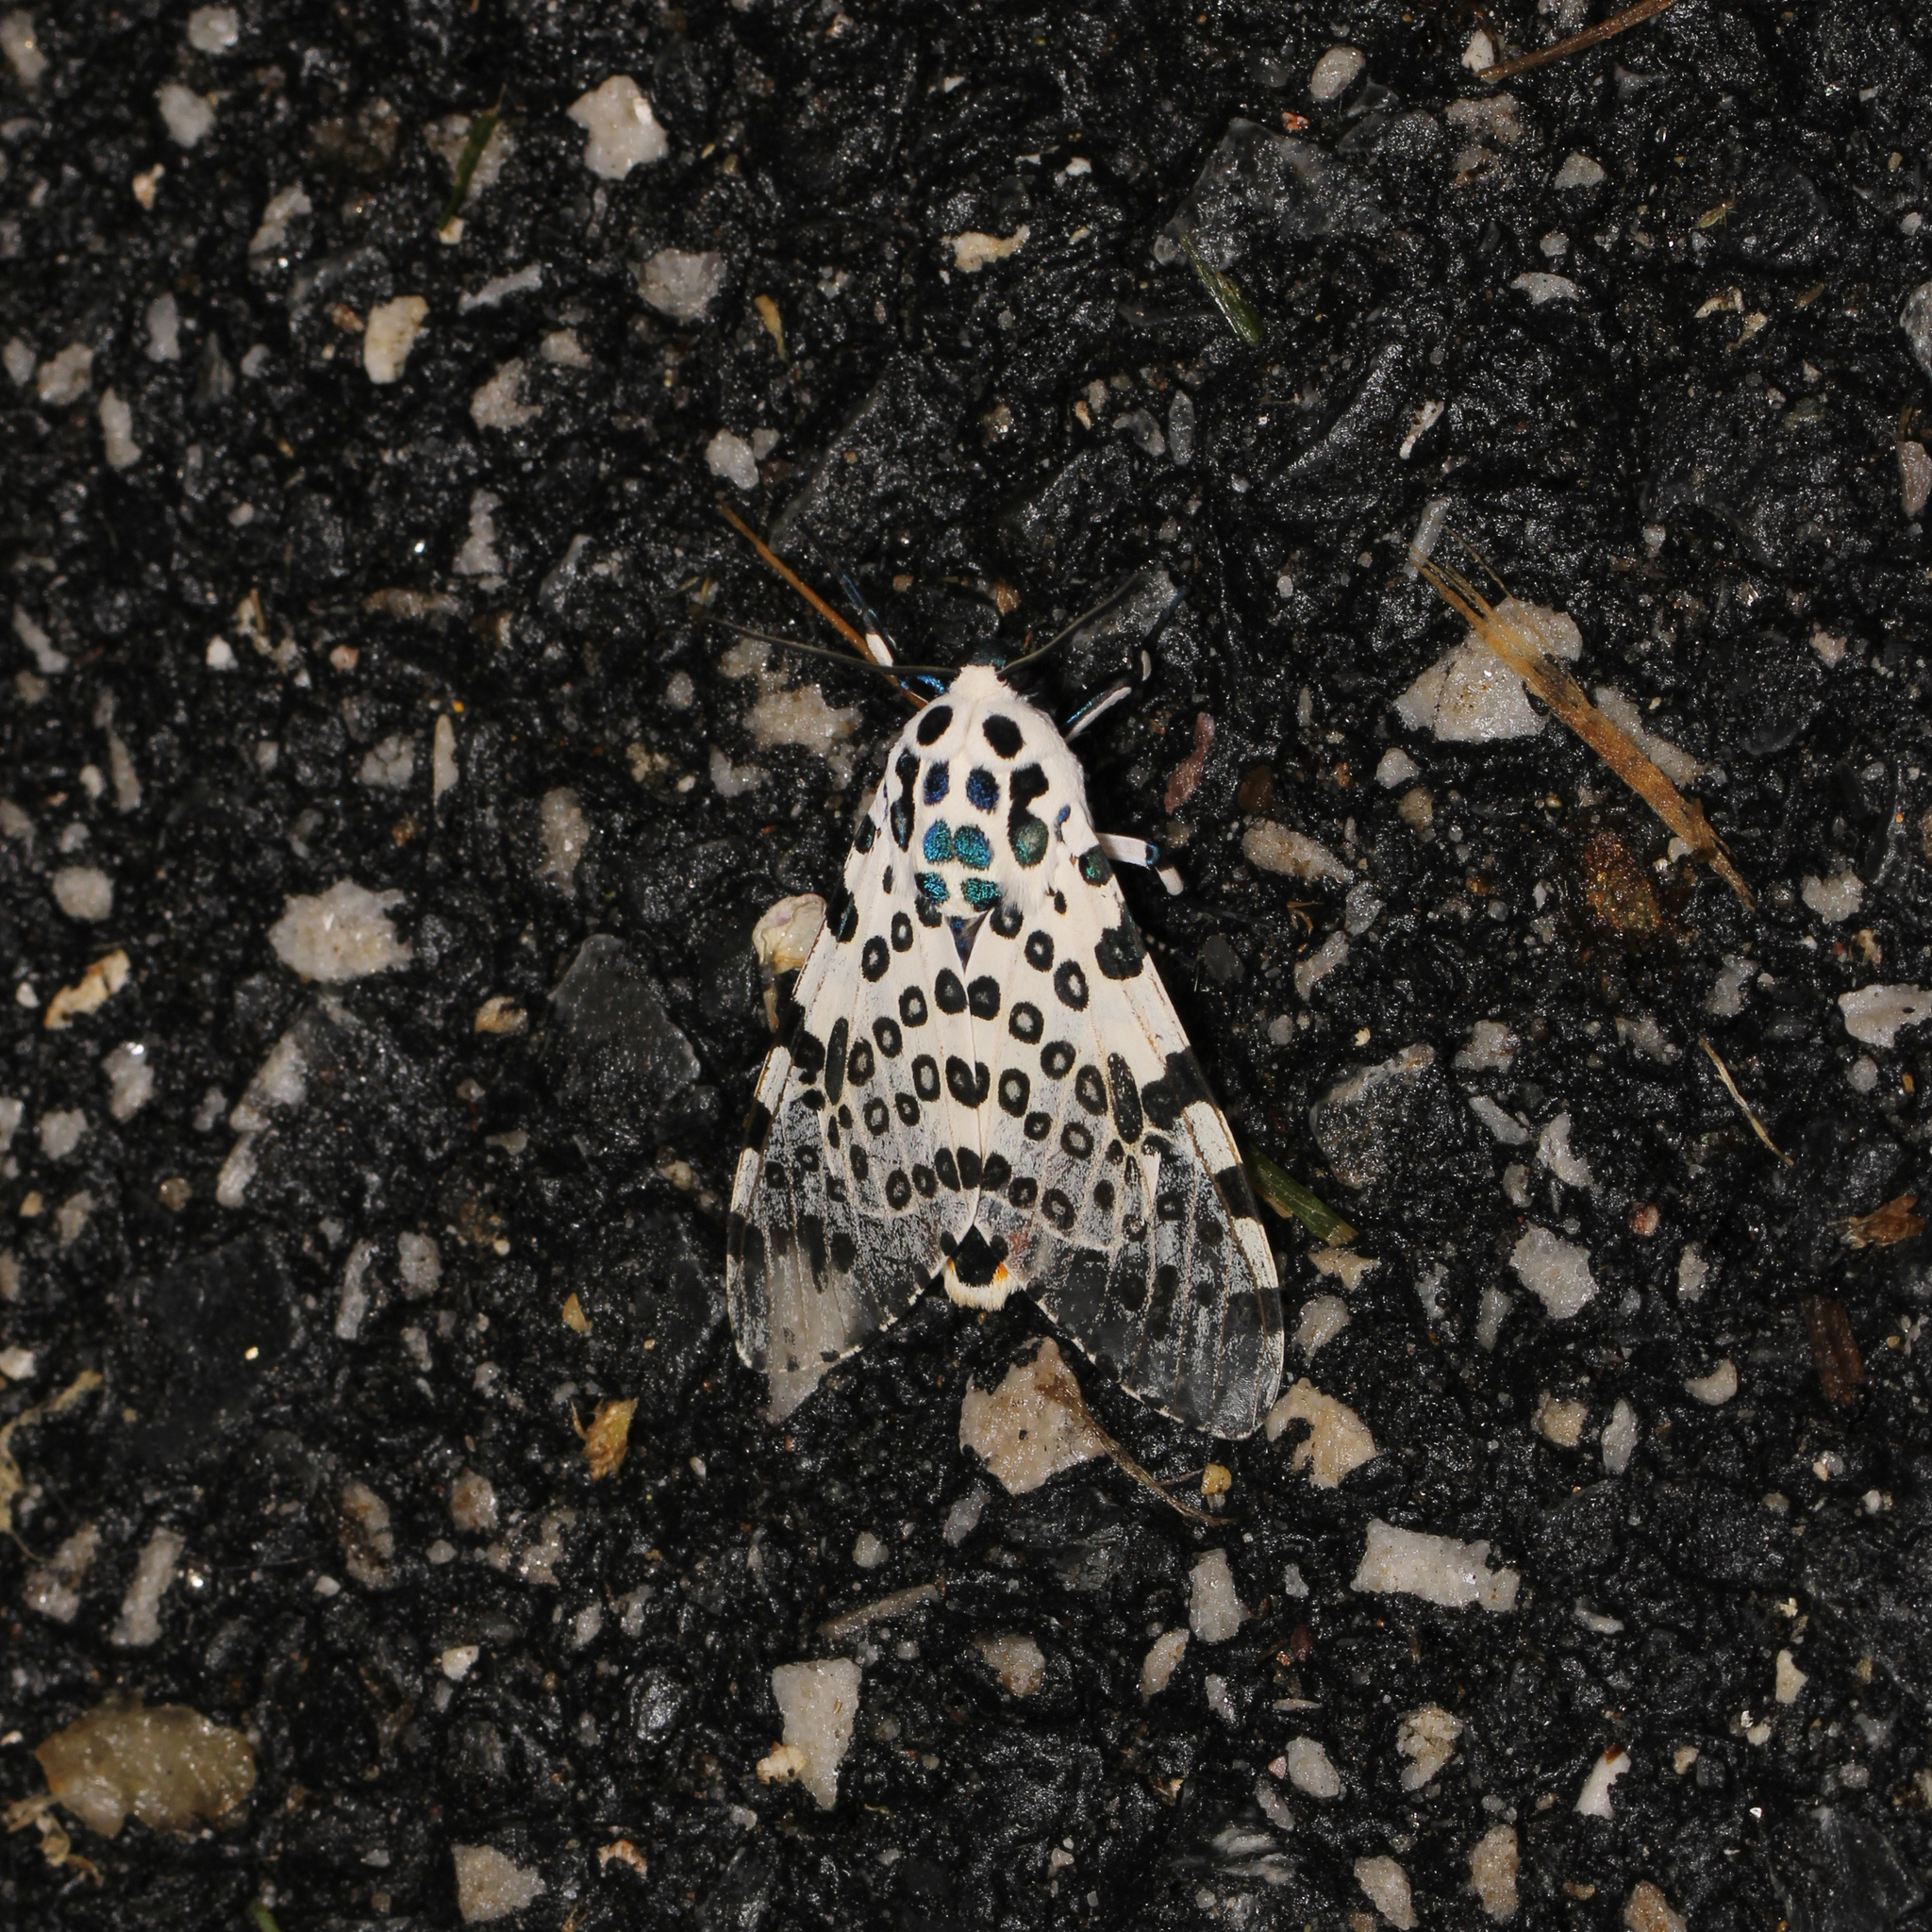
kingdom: Animalia
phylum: Arthropoda
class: Insecta
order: Lepidoptera
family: Erebidae
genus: Hypercompe
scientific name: Hypercompe scribonia
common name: Giant leopard moth
